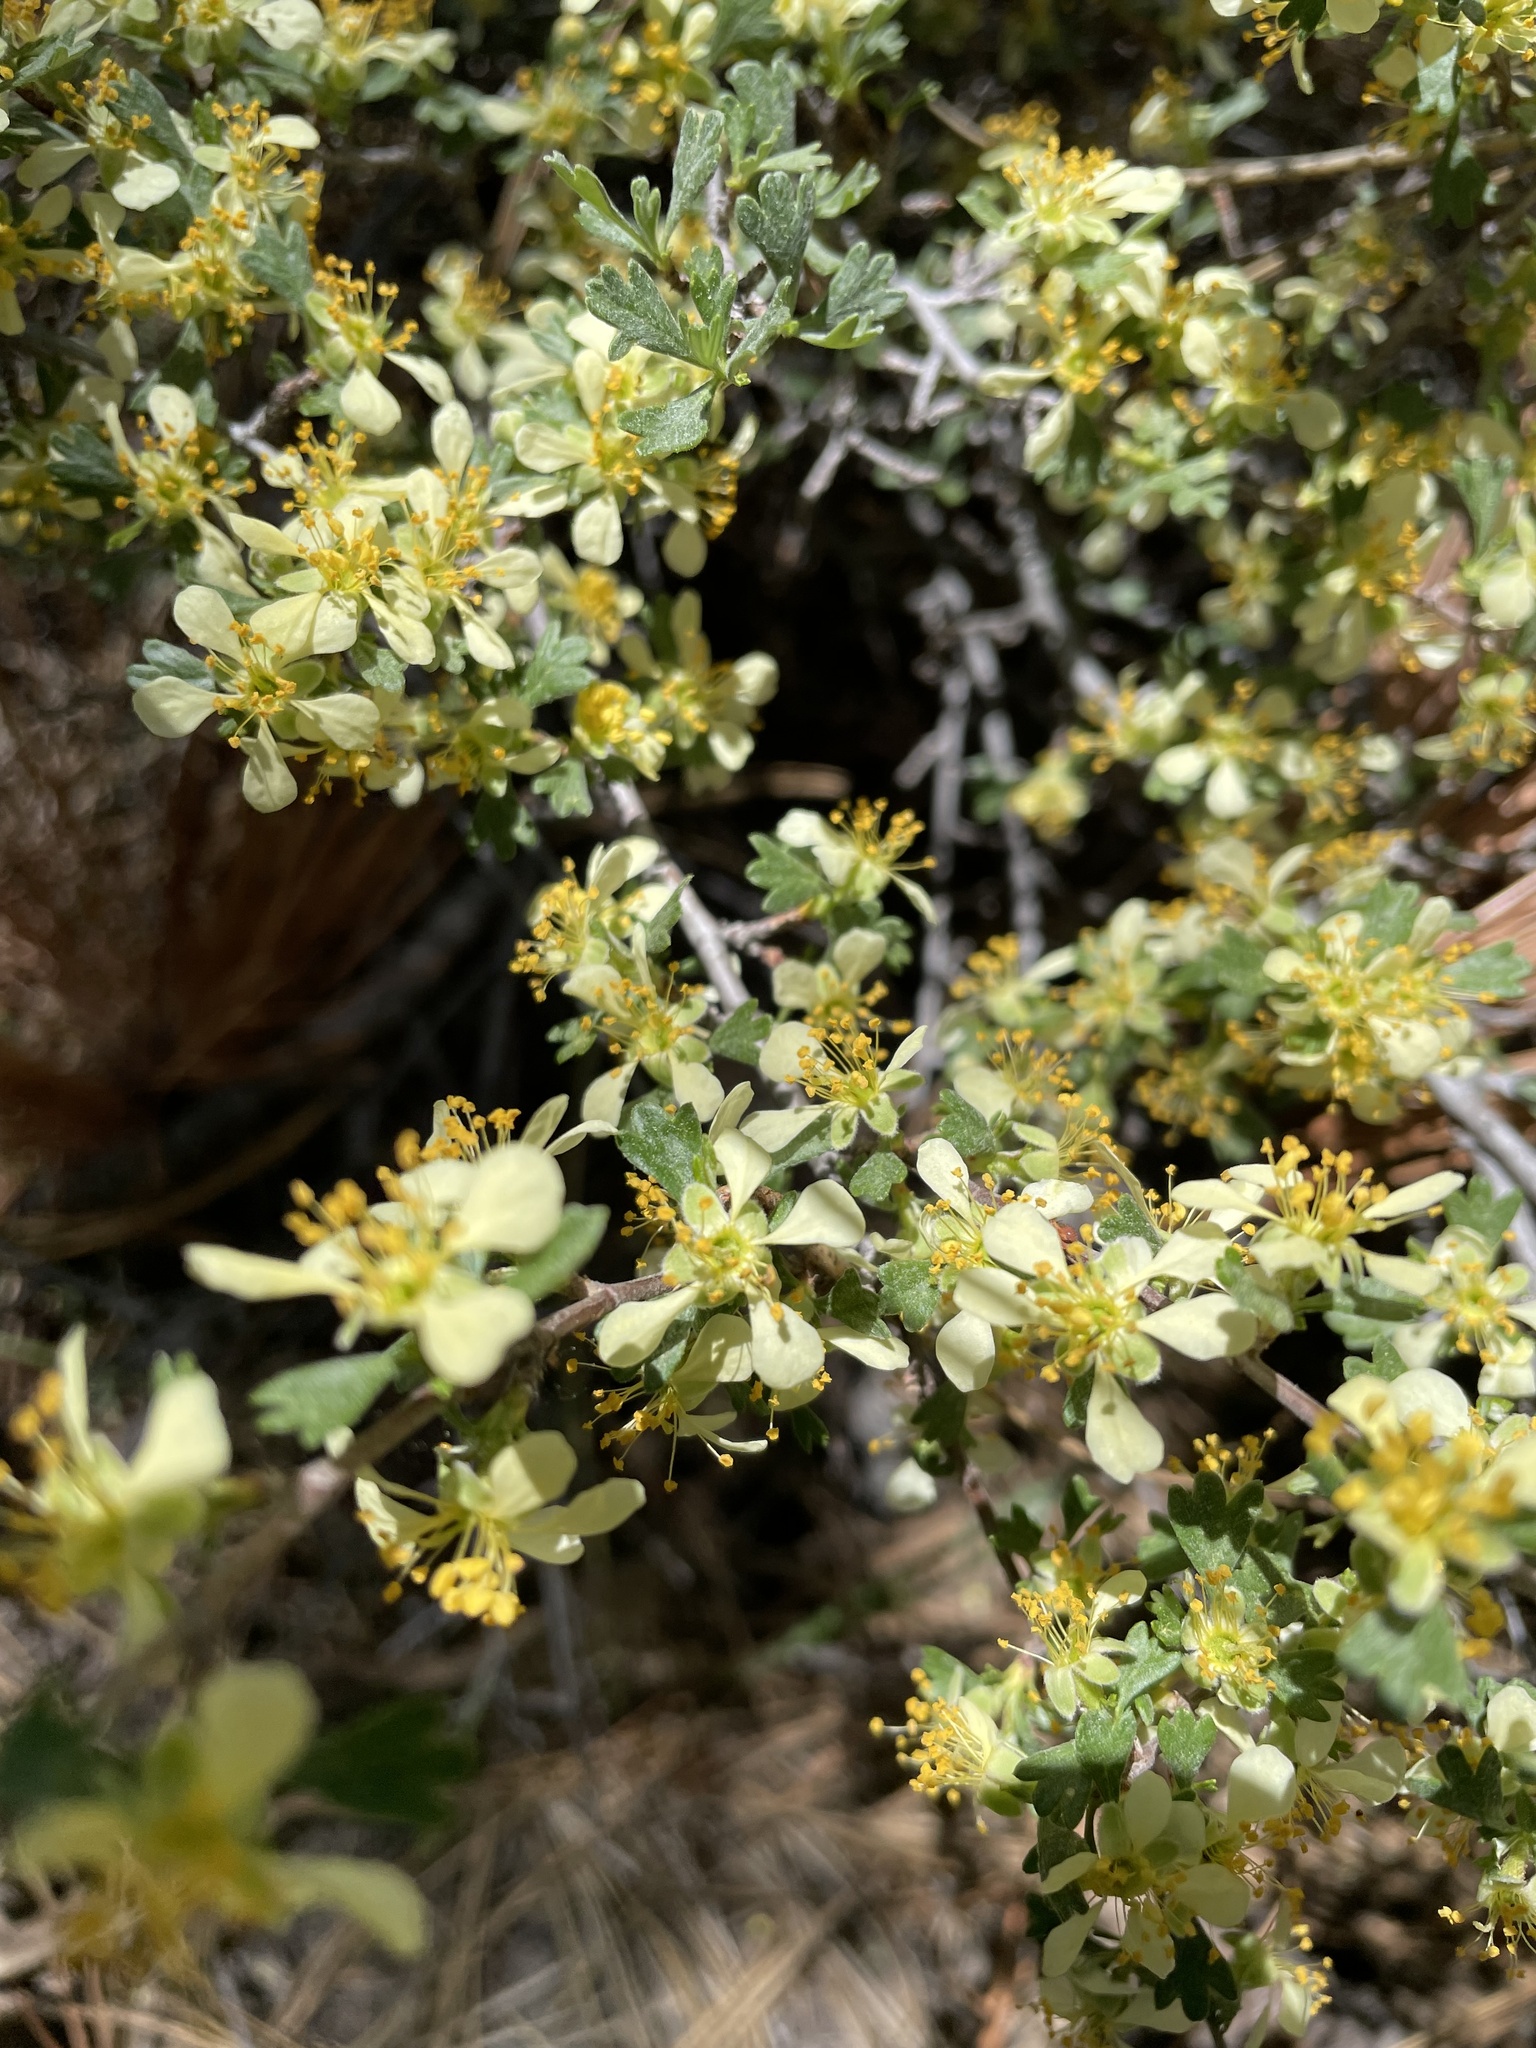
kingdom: Plantae
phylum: Tracheophyta
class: Magnoliopsida
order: Rosales
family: Rosaceae
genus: Purshia
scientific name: Purshia tridentata
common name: Antelope bitterbrush
